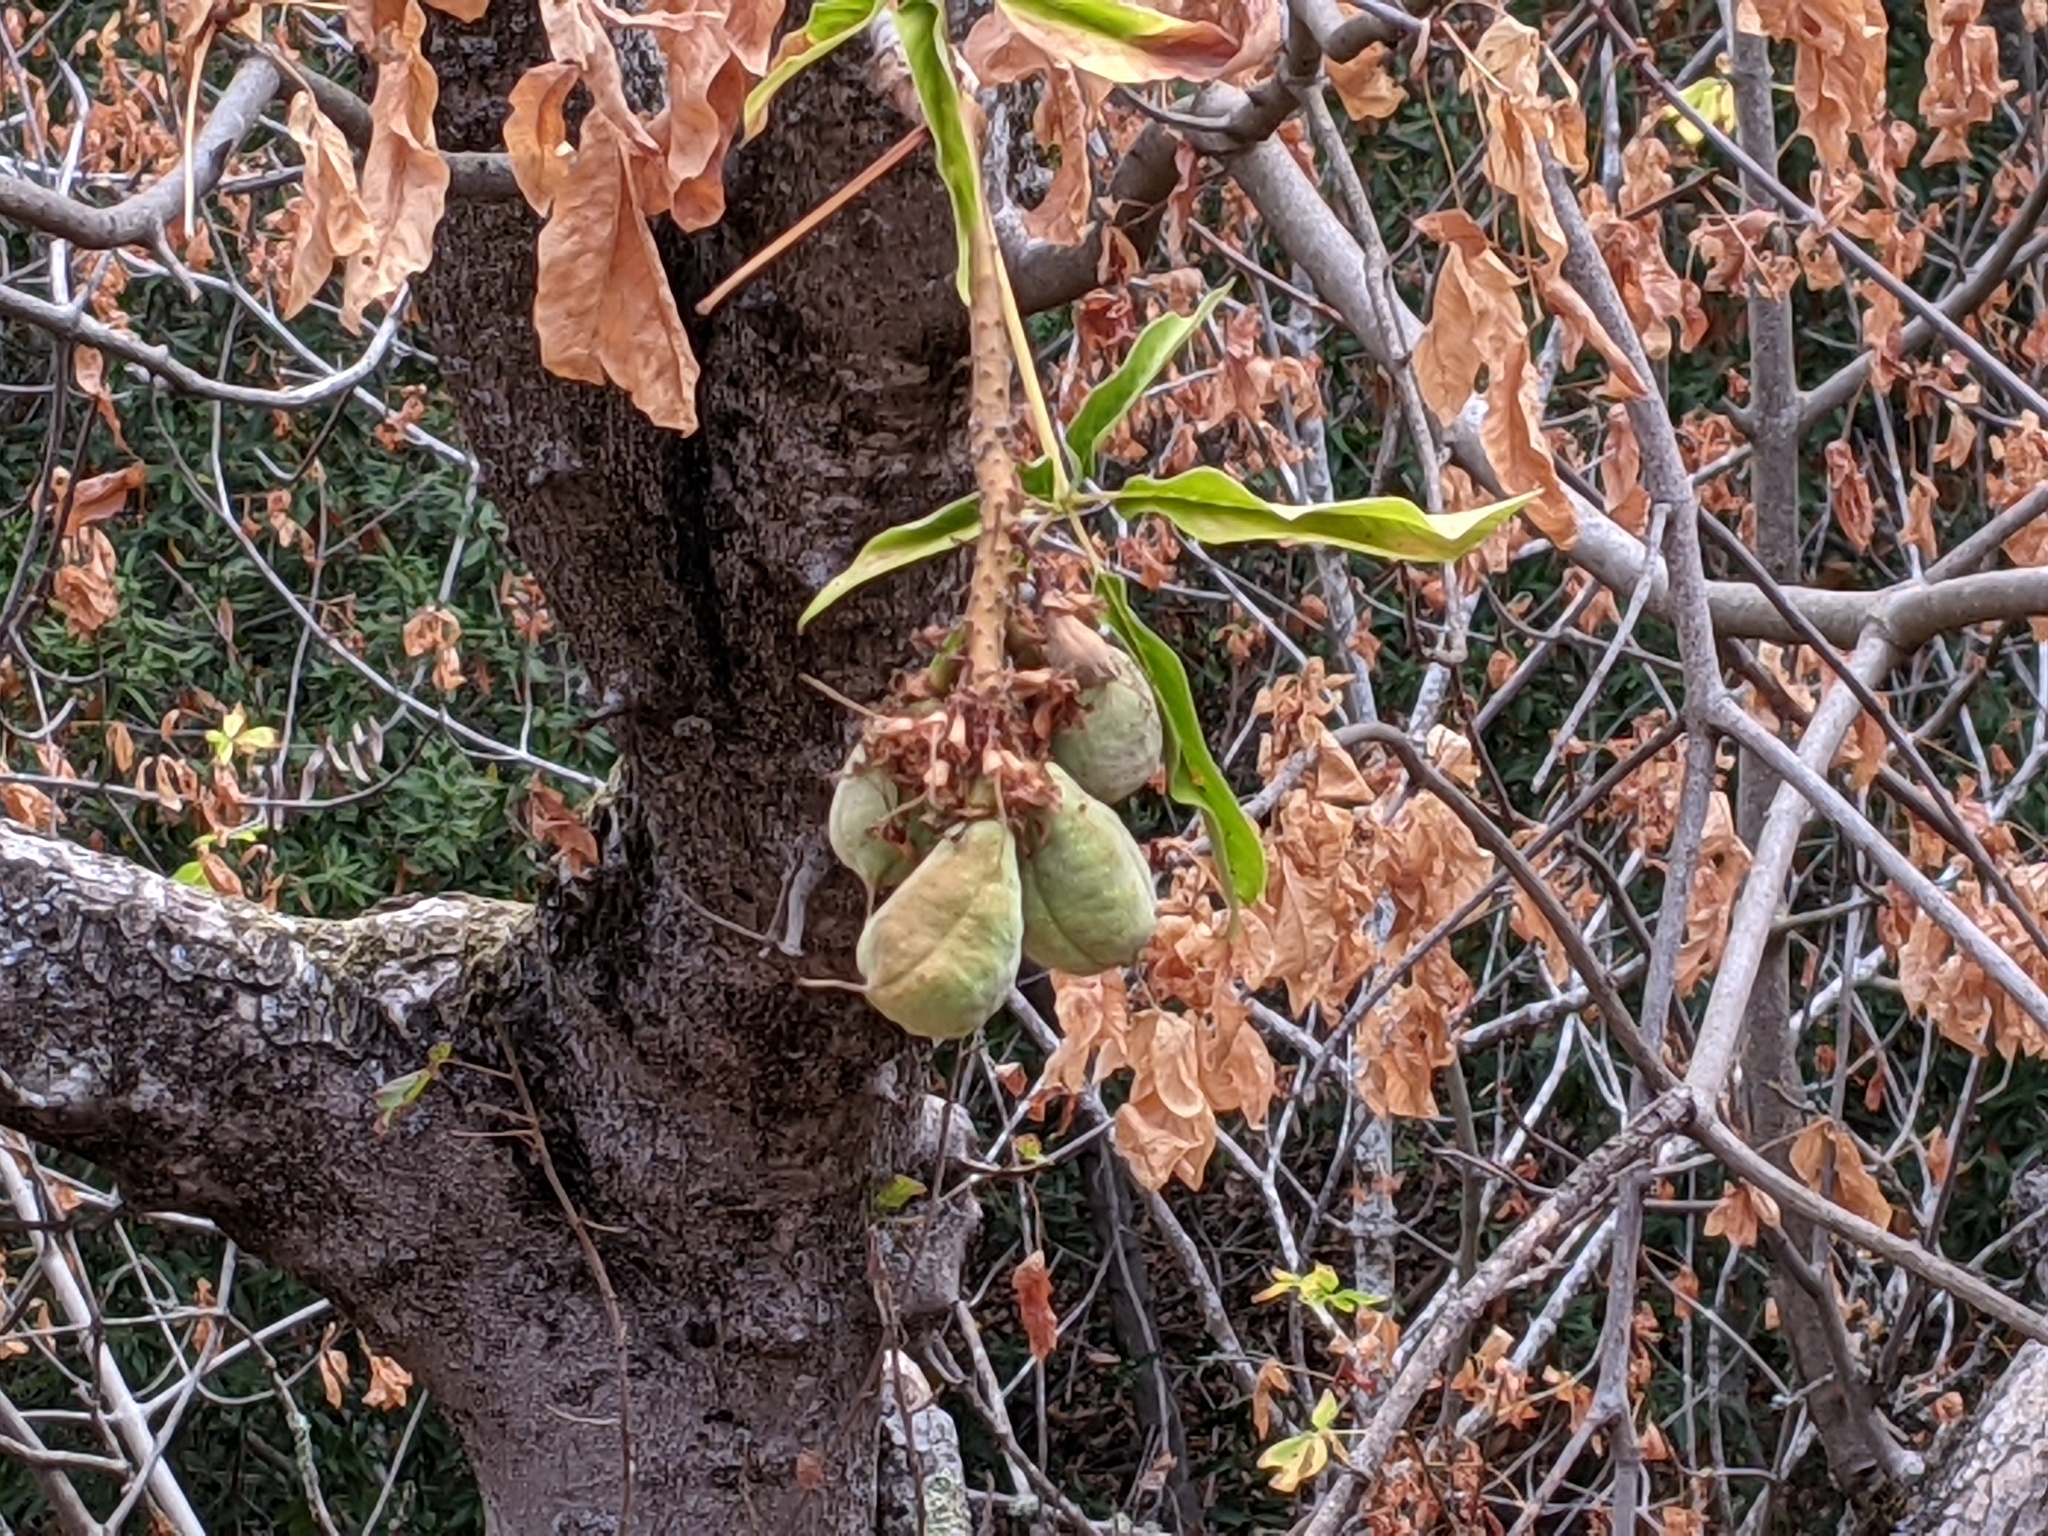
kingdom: Plantae
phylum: Tracheophyta
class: Magnoliopsida
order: Sapindales
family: Sapindaceae
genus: Aesculus
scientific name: Aesculus californica
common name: California buckeye
